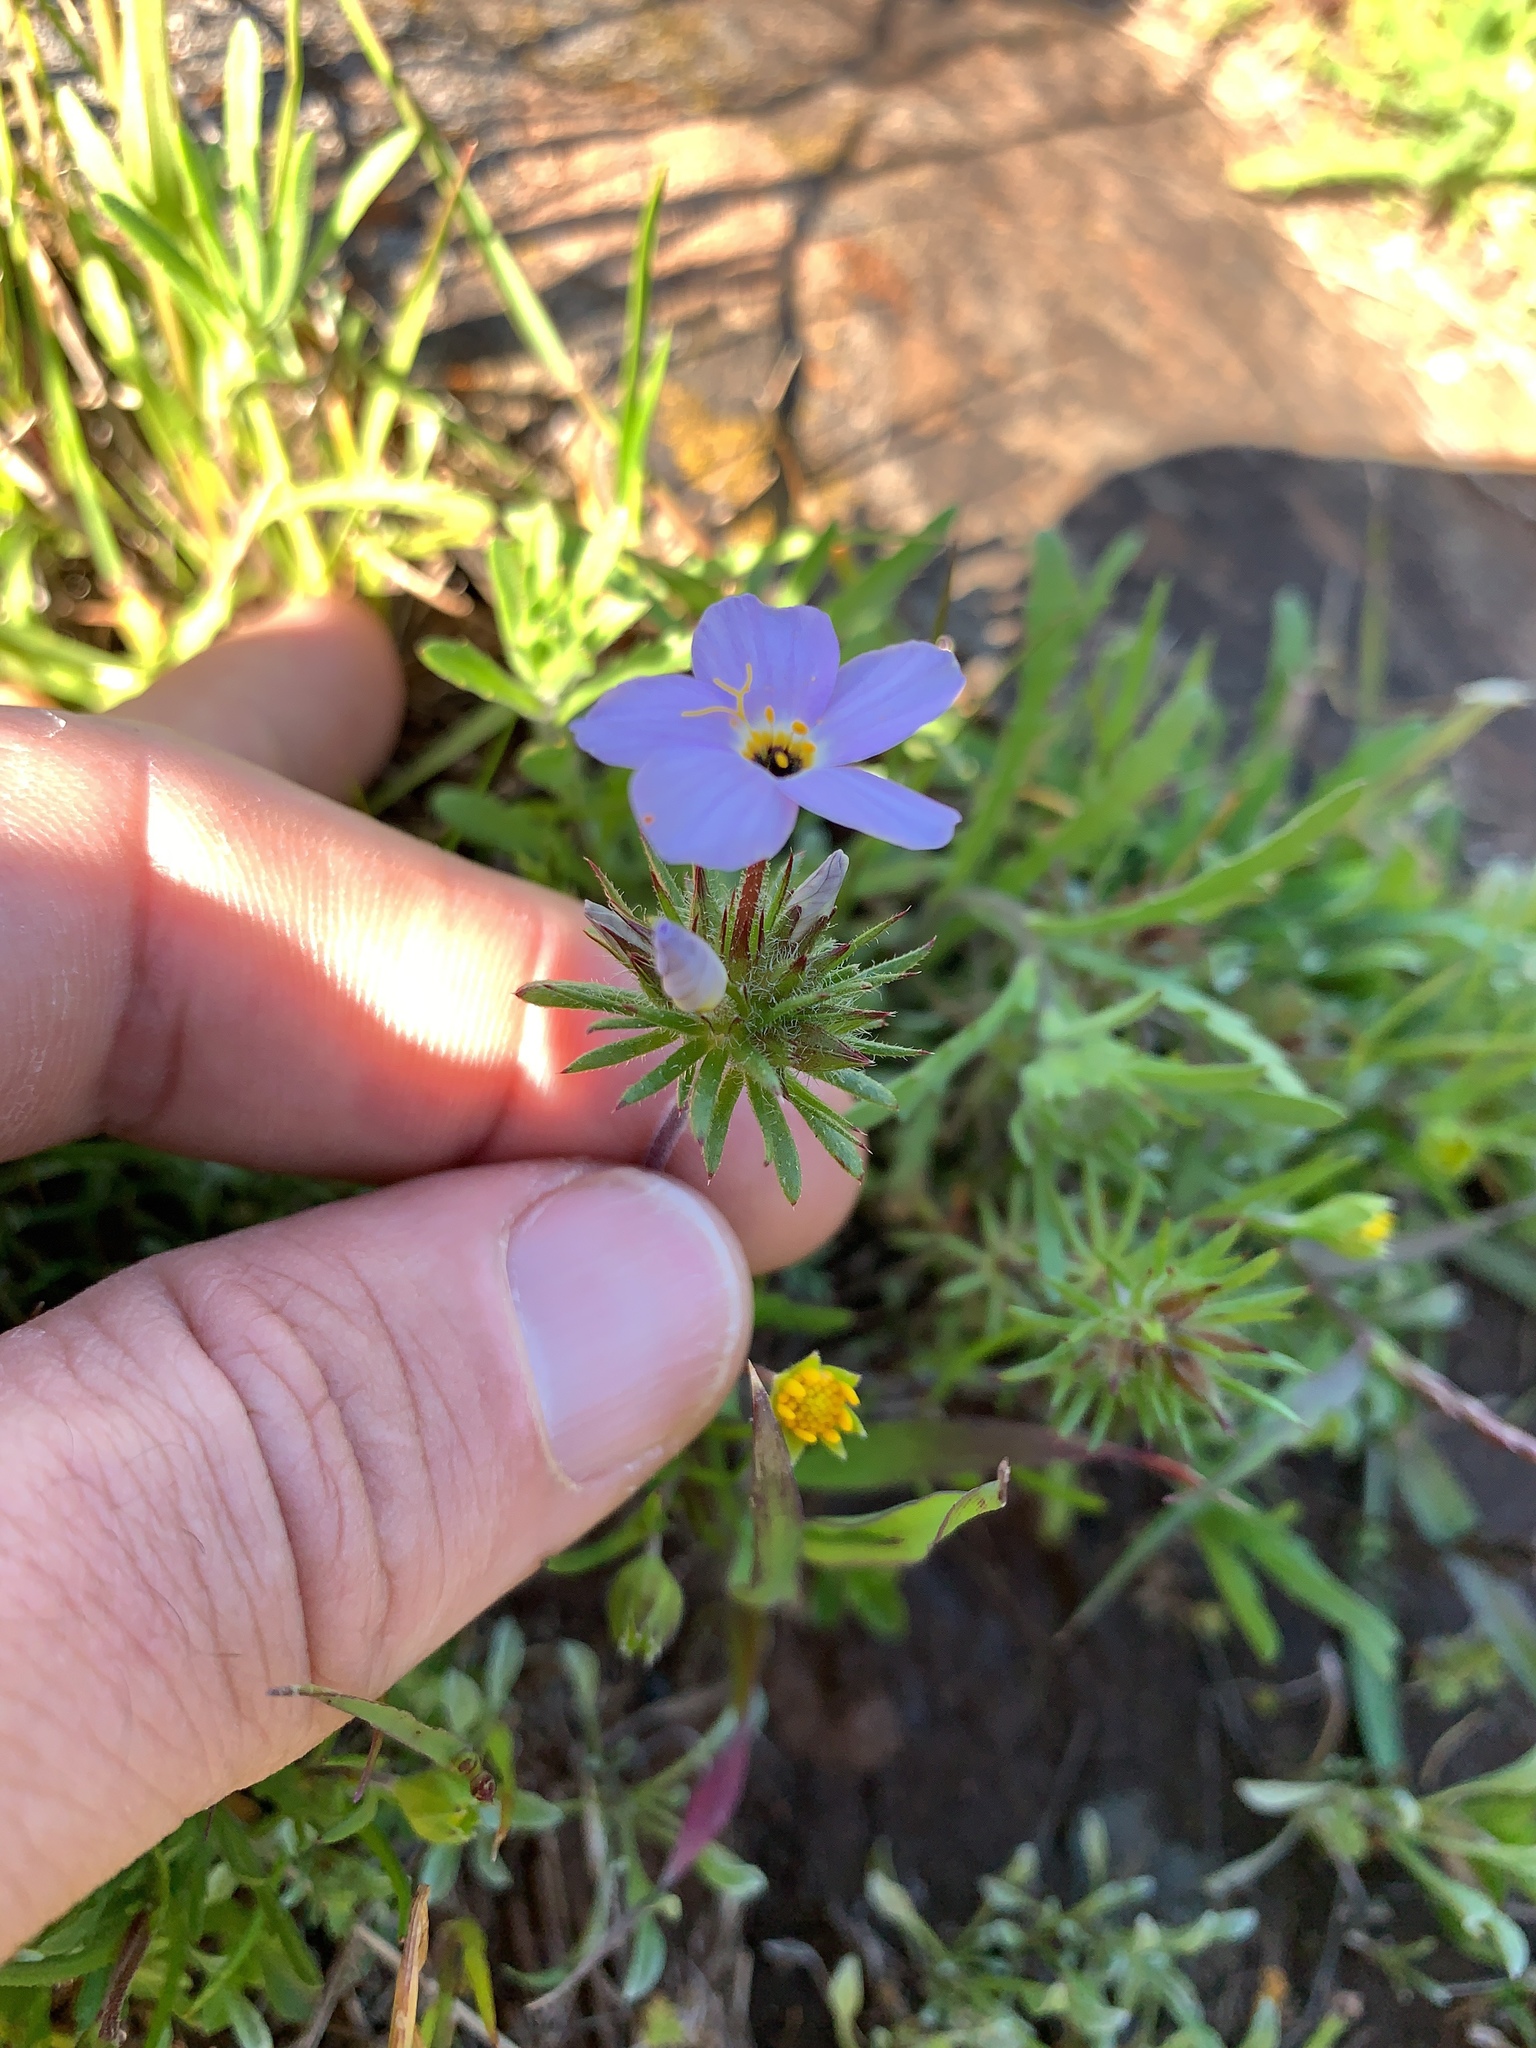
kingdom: Plantae
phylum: Tracheophyta
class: Magnoliopsida
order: Ericales
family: Polemoniaceae
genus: Leptosiphon
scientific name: Leptosiphon androsaceus
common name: False babystars
